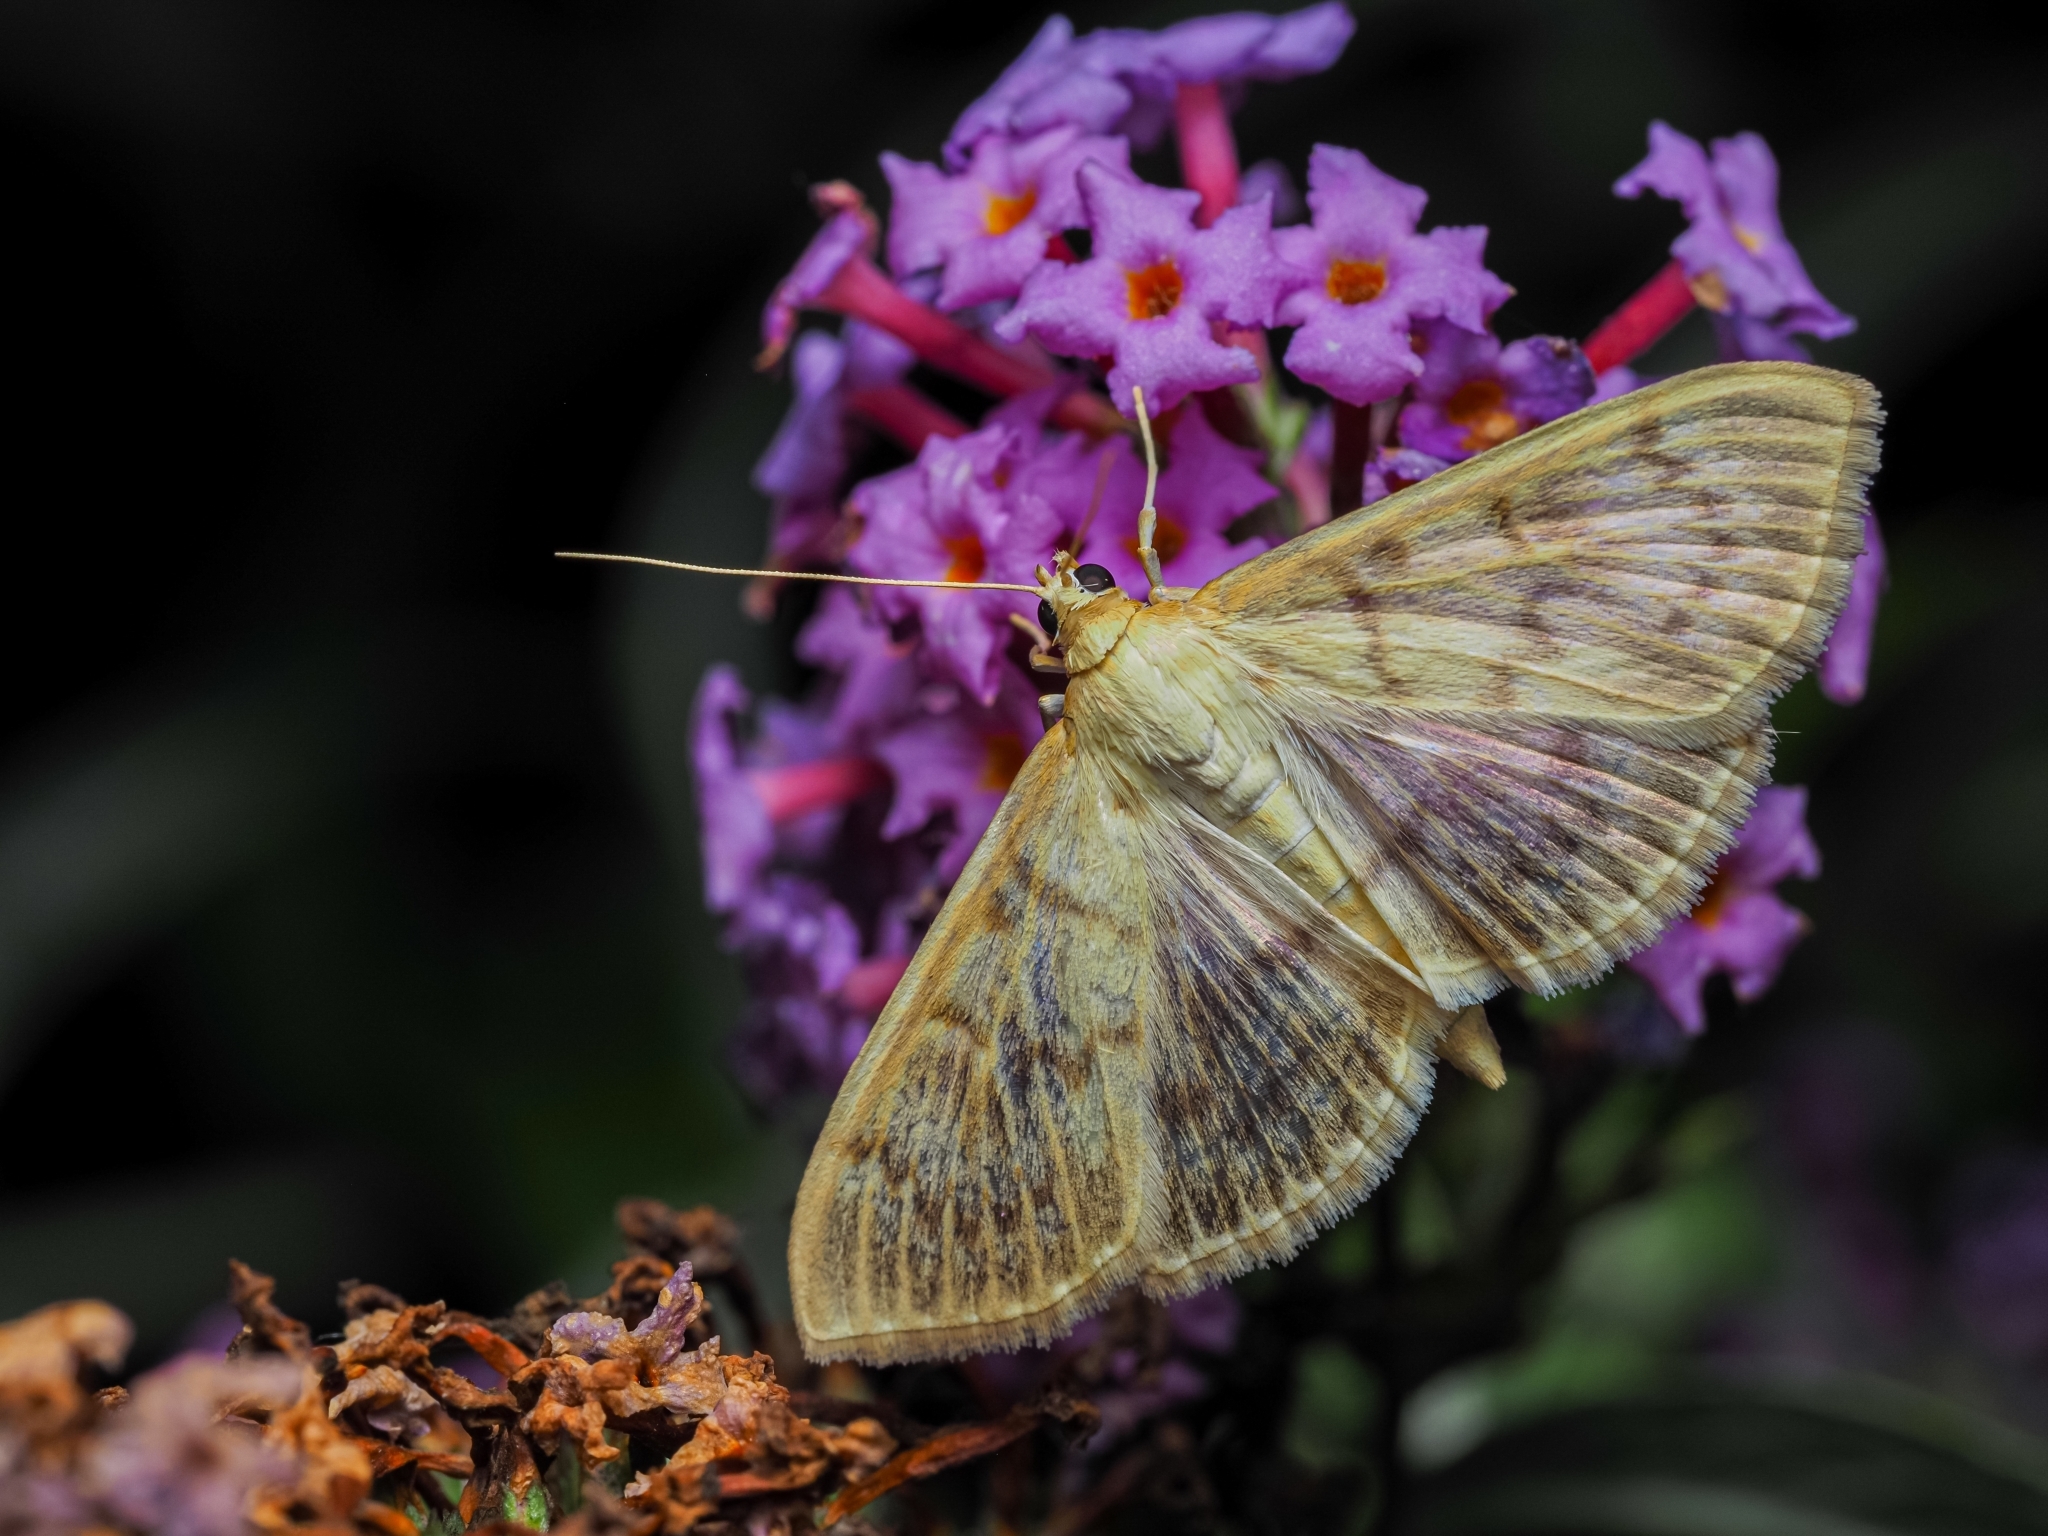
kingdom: Animalia
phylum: Arthropoda
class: Insecta
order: Lepidoptera
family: Crambidae
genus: Patania
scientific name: Patania ruralis
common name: Mother of pearl
